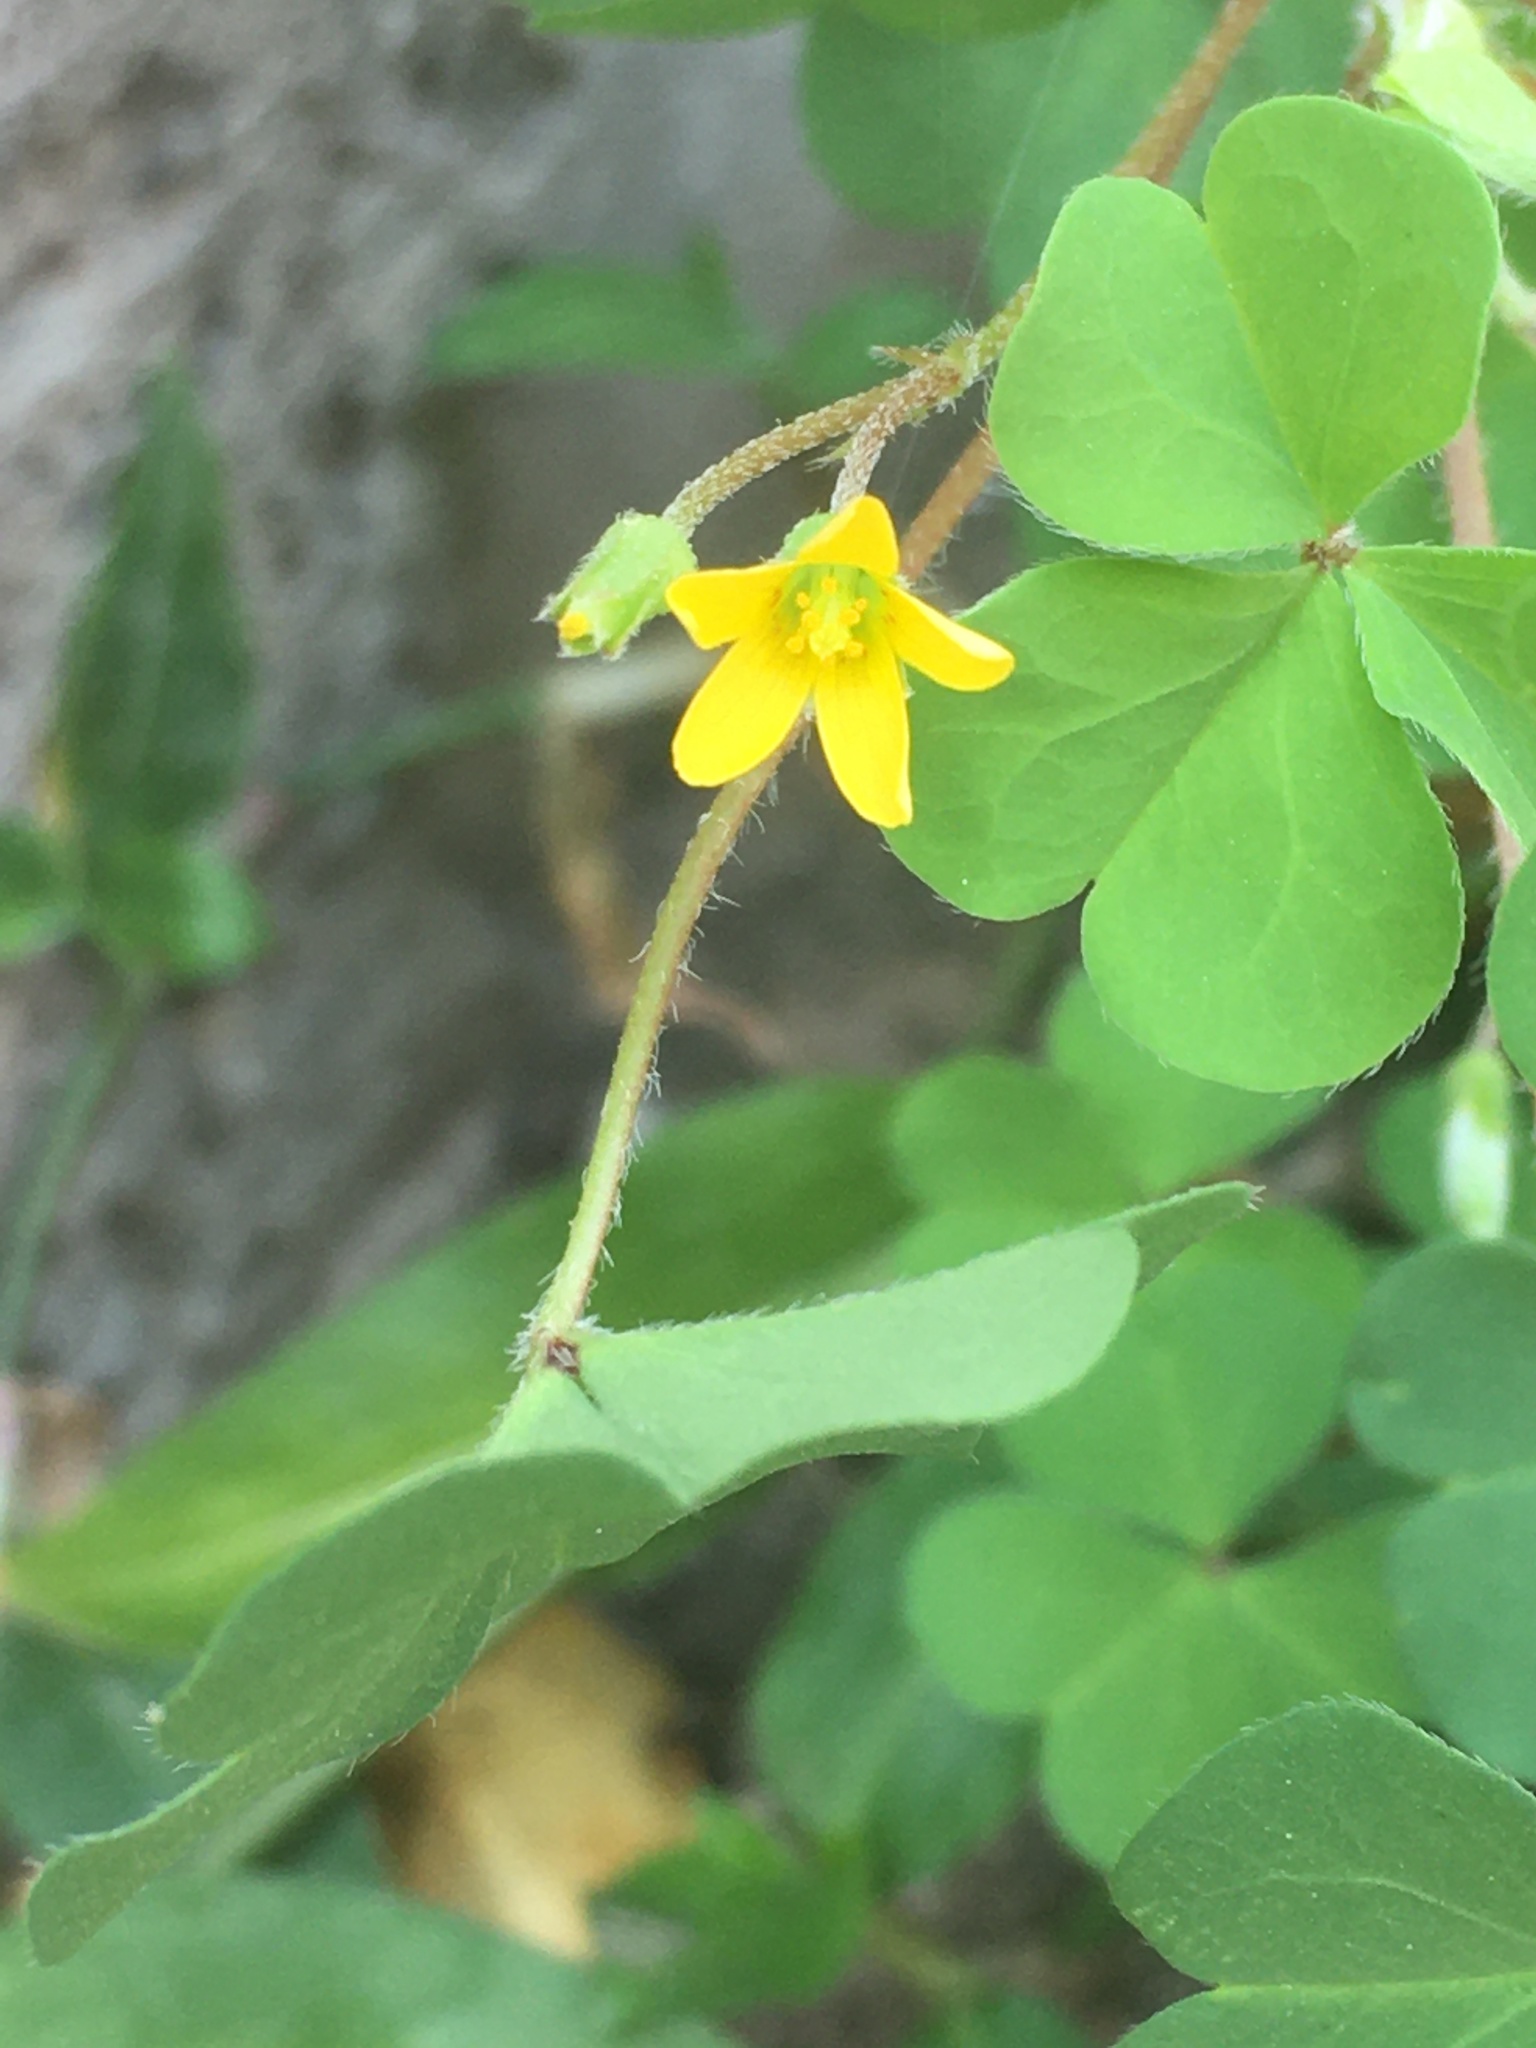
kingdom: Plantae
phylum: Tracheophyta
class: Magnoliopsida
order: Oxalidales
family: Oxalidaceae
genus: Oxalis
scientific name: Oxalis corniculata
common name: Procumbent yellow-sorrel
